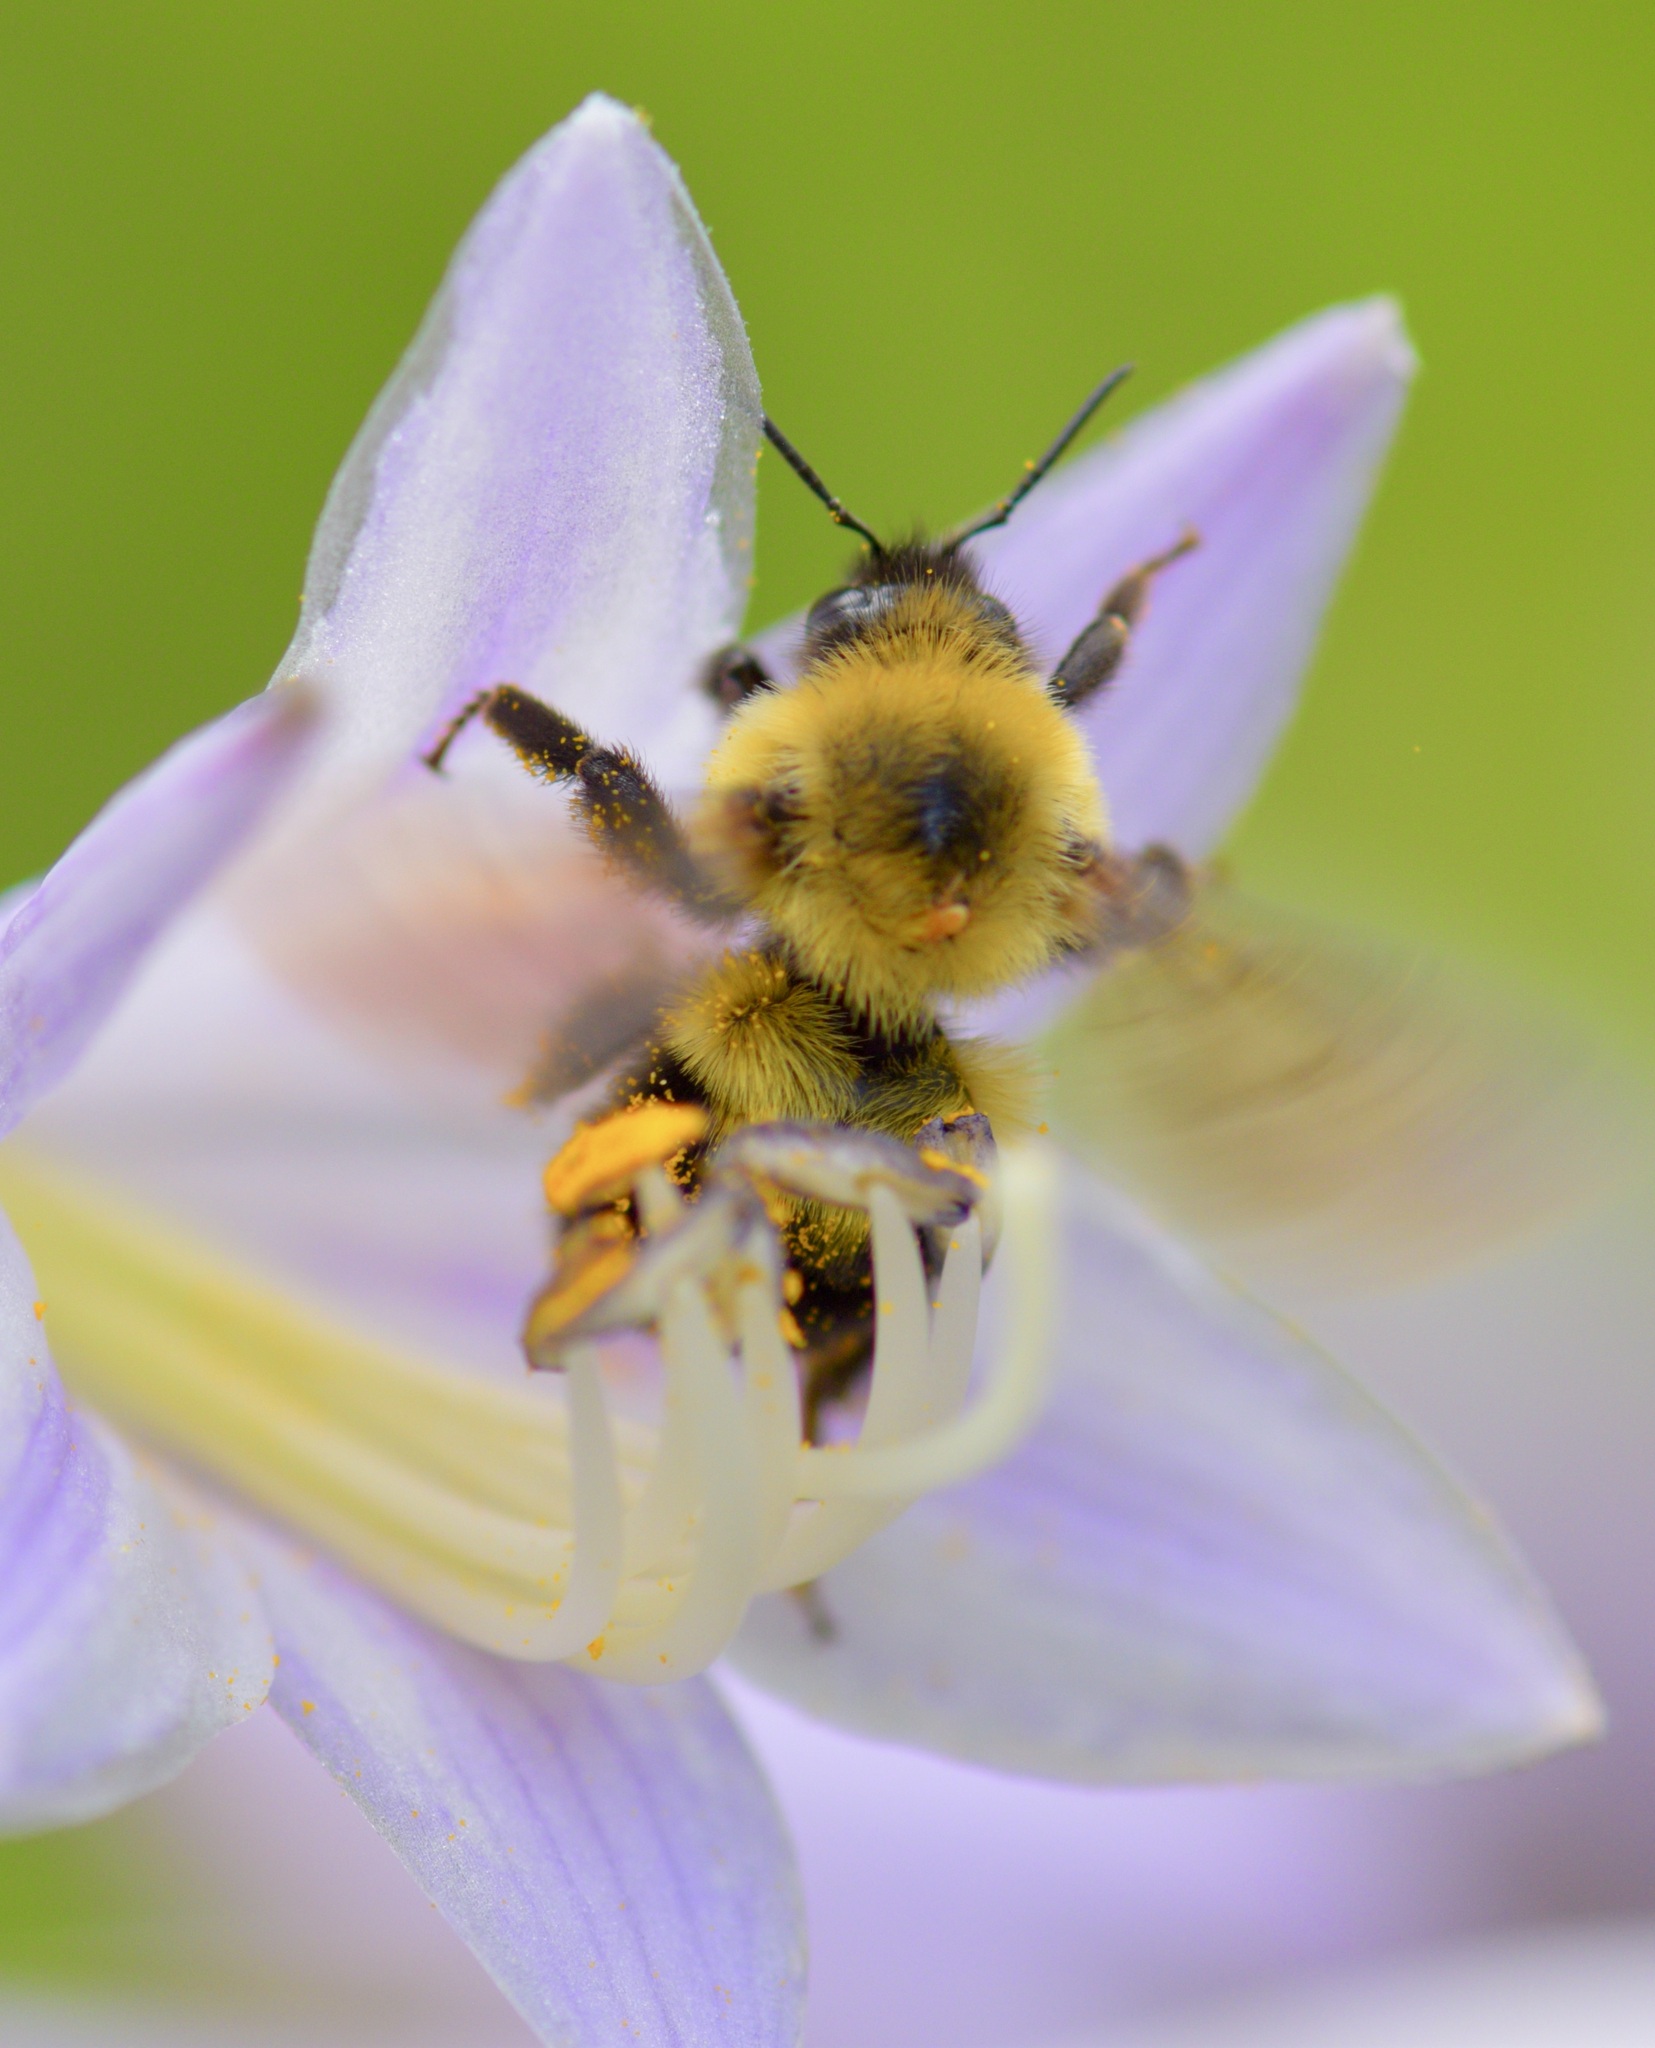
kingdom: Animalia
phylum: Arthropoda
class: Insecta
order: Hymenoptera
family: Apidae
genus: Bombus
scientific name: Bombus bimaculatus
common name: Two-spotted bumble bee
